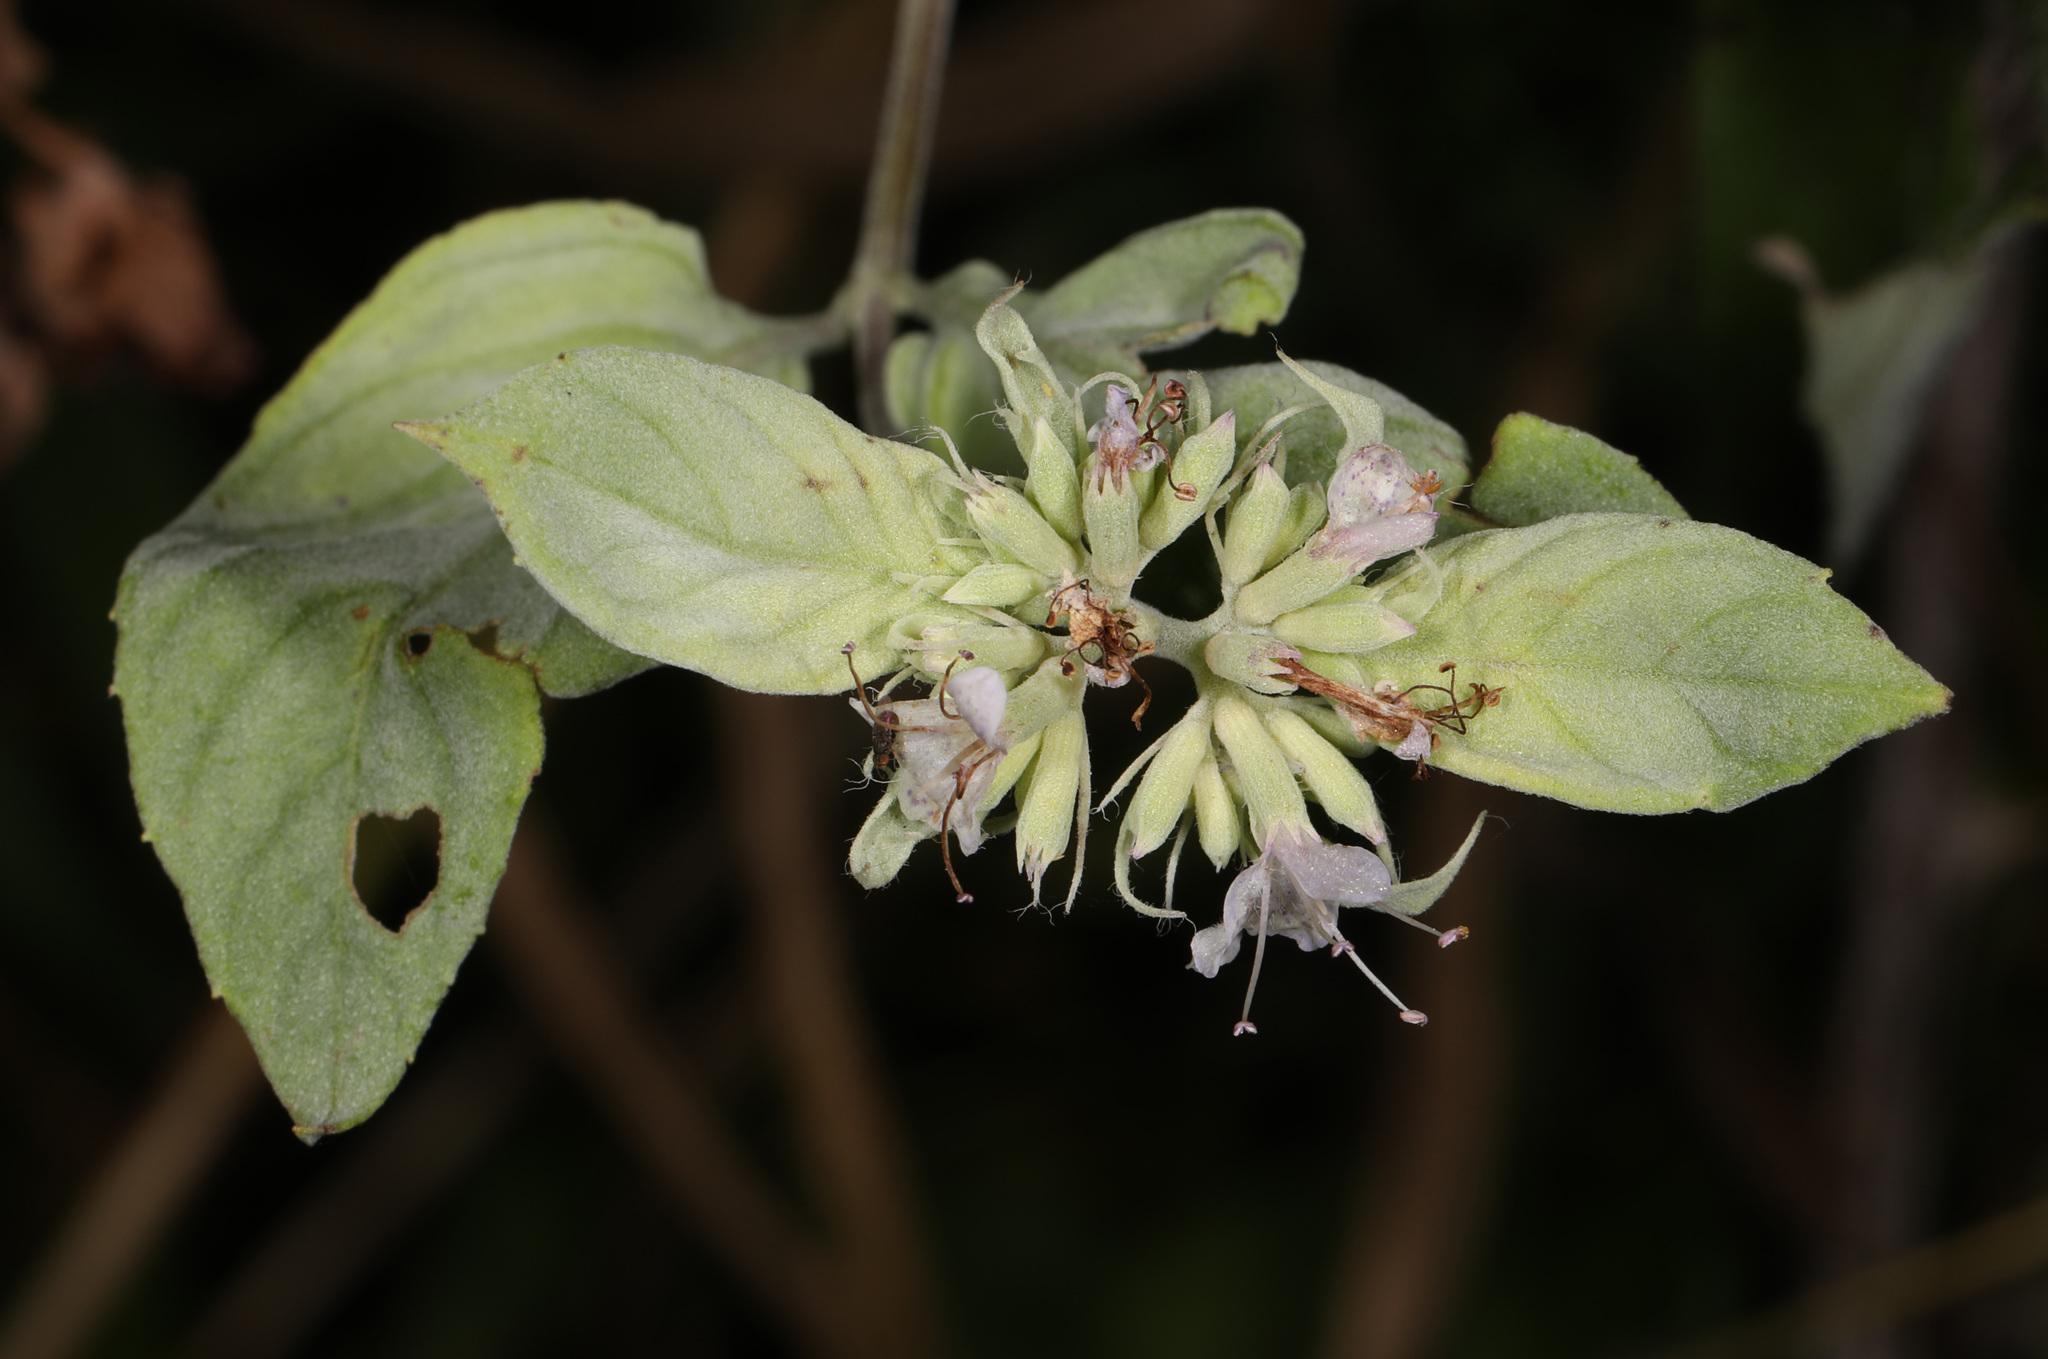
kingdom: Plantae
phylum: Tracheophyta
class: Magnoliopsida
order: Lamiales
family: Lamiaceae
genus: Pycnanthemum
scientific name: Pycnanthemum muticum
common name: Blunt mountain-mint
